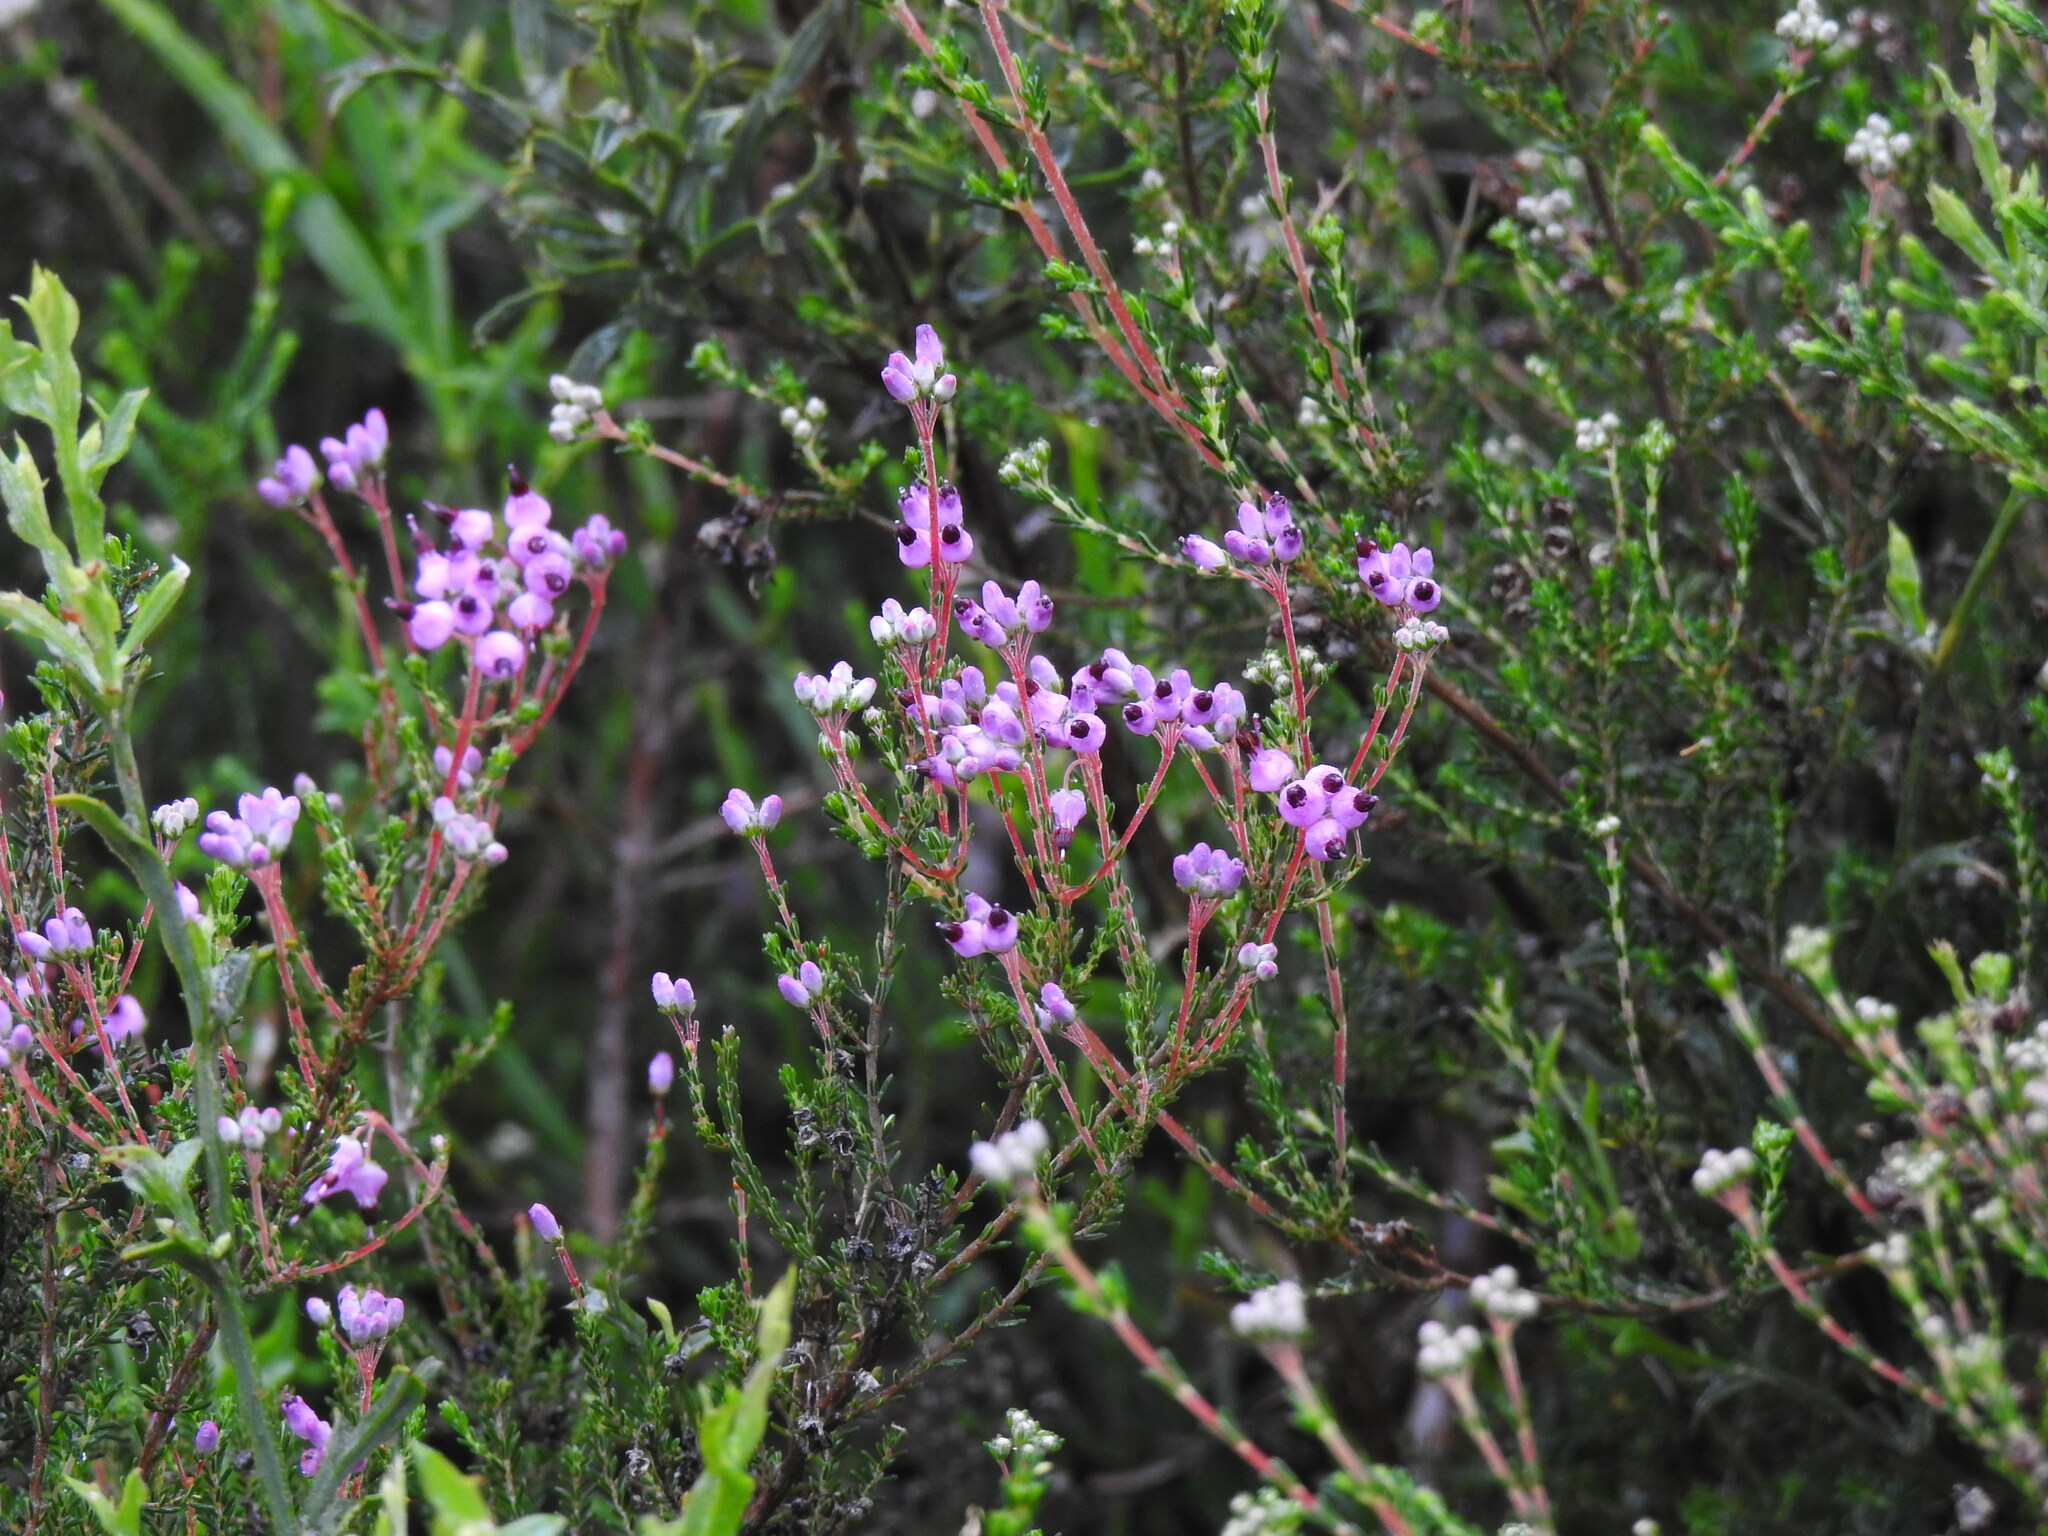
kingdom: Plantae
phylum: Tracheophyta
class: Magnoliopsida
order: Ericales
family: Ericaceae
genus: Erica
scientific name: Erica umbellata
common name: Dwarf spanish heath
